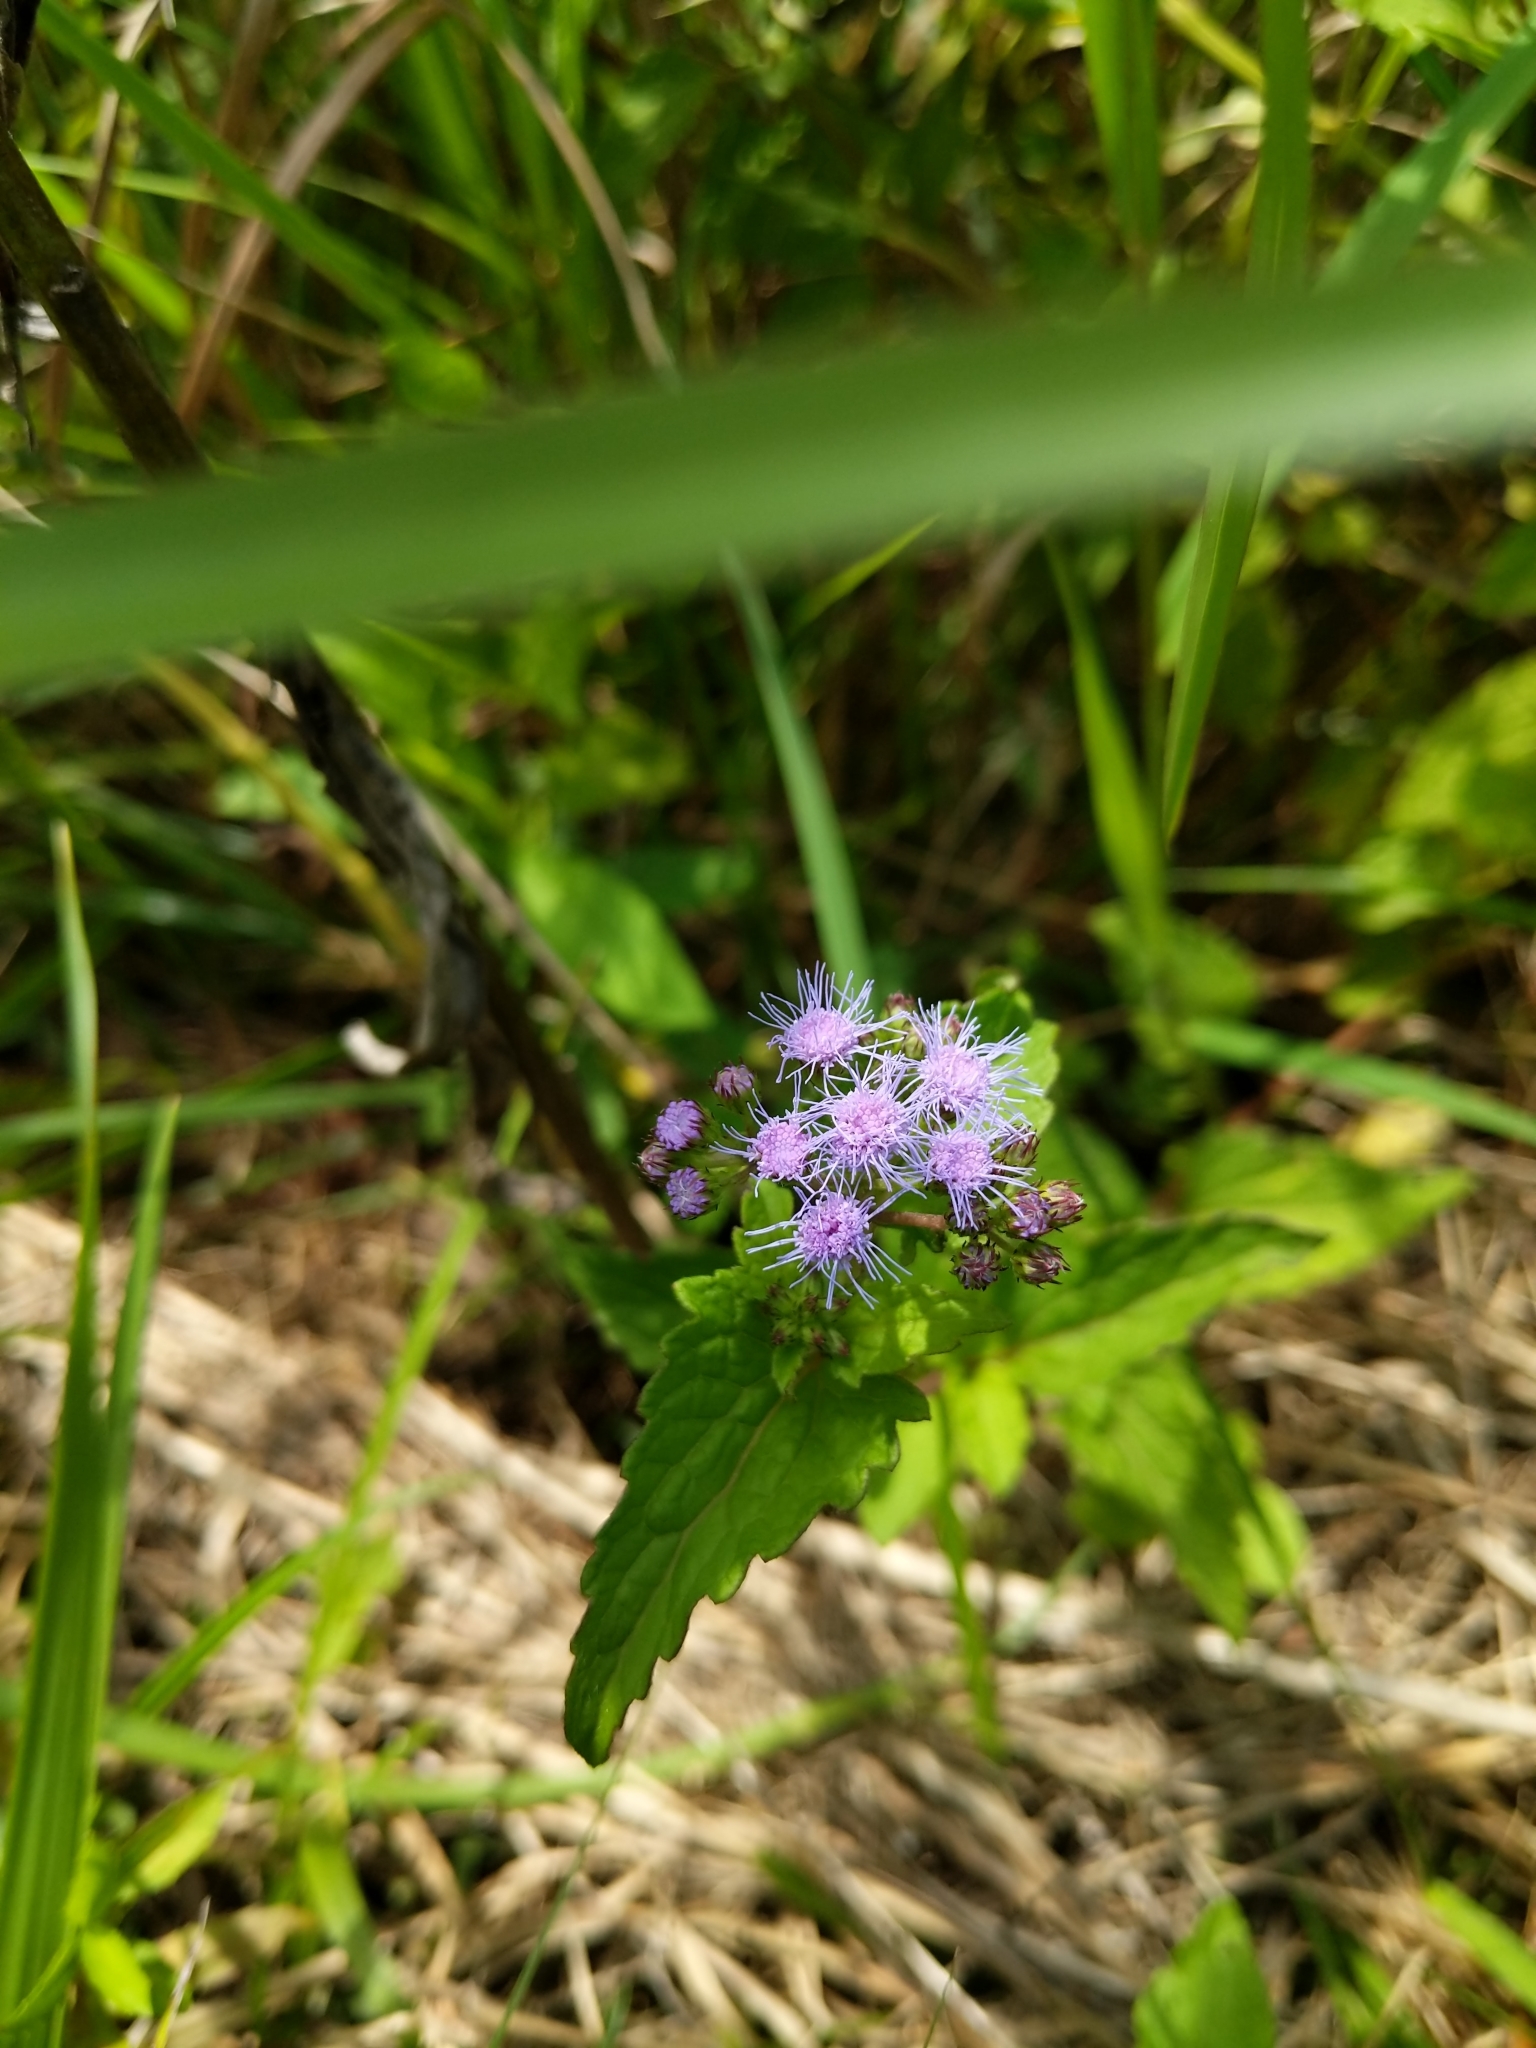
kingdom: Plantae
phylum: Tracheophyta
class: Magnoliopsida
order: Asterales
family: Asteraceae
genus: Conoclinium
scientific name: Conoclinium coelestinum
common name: Blue mistflower
